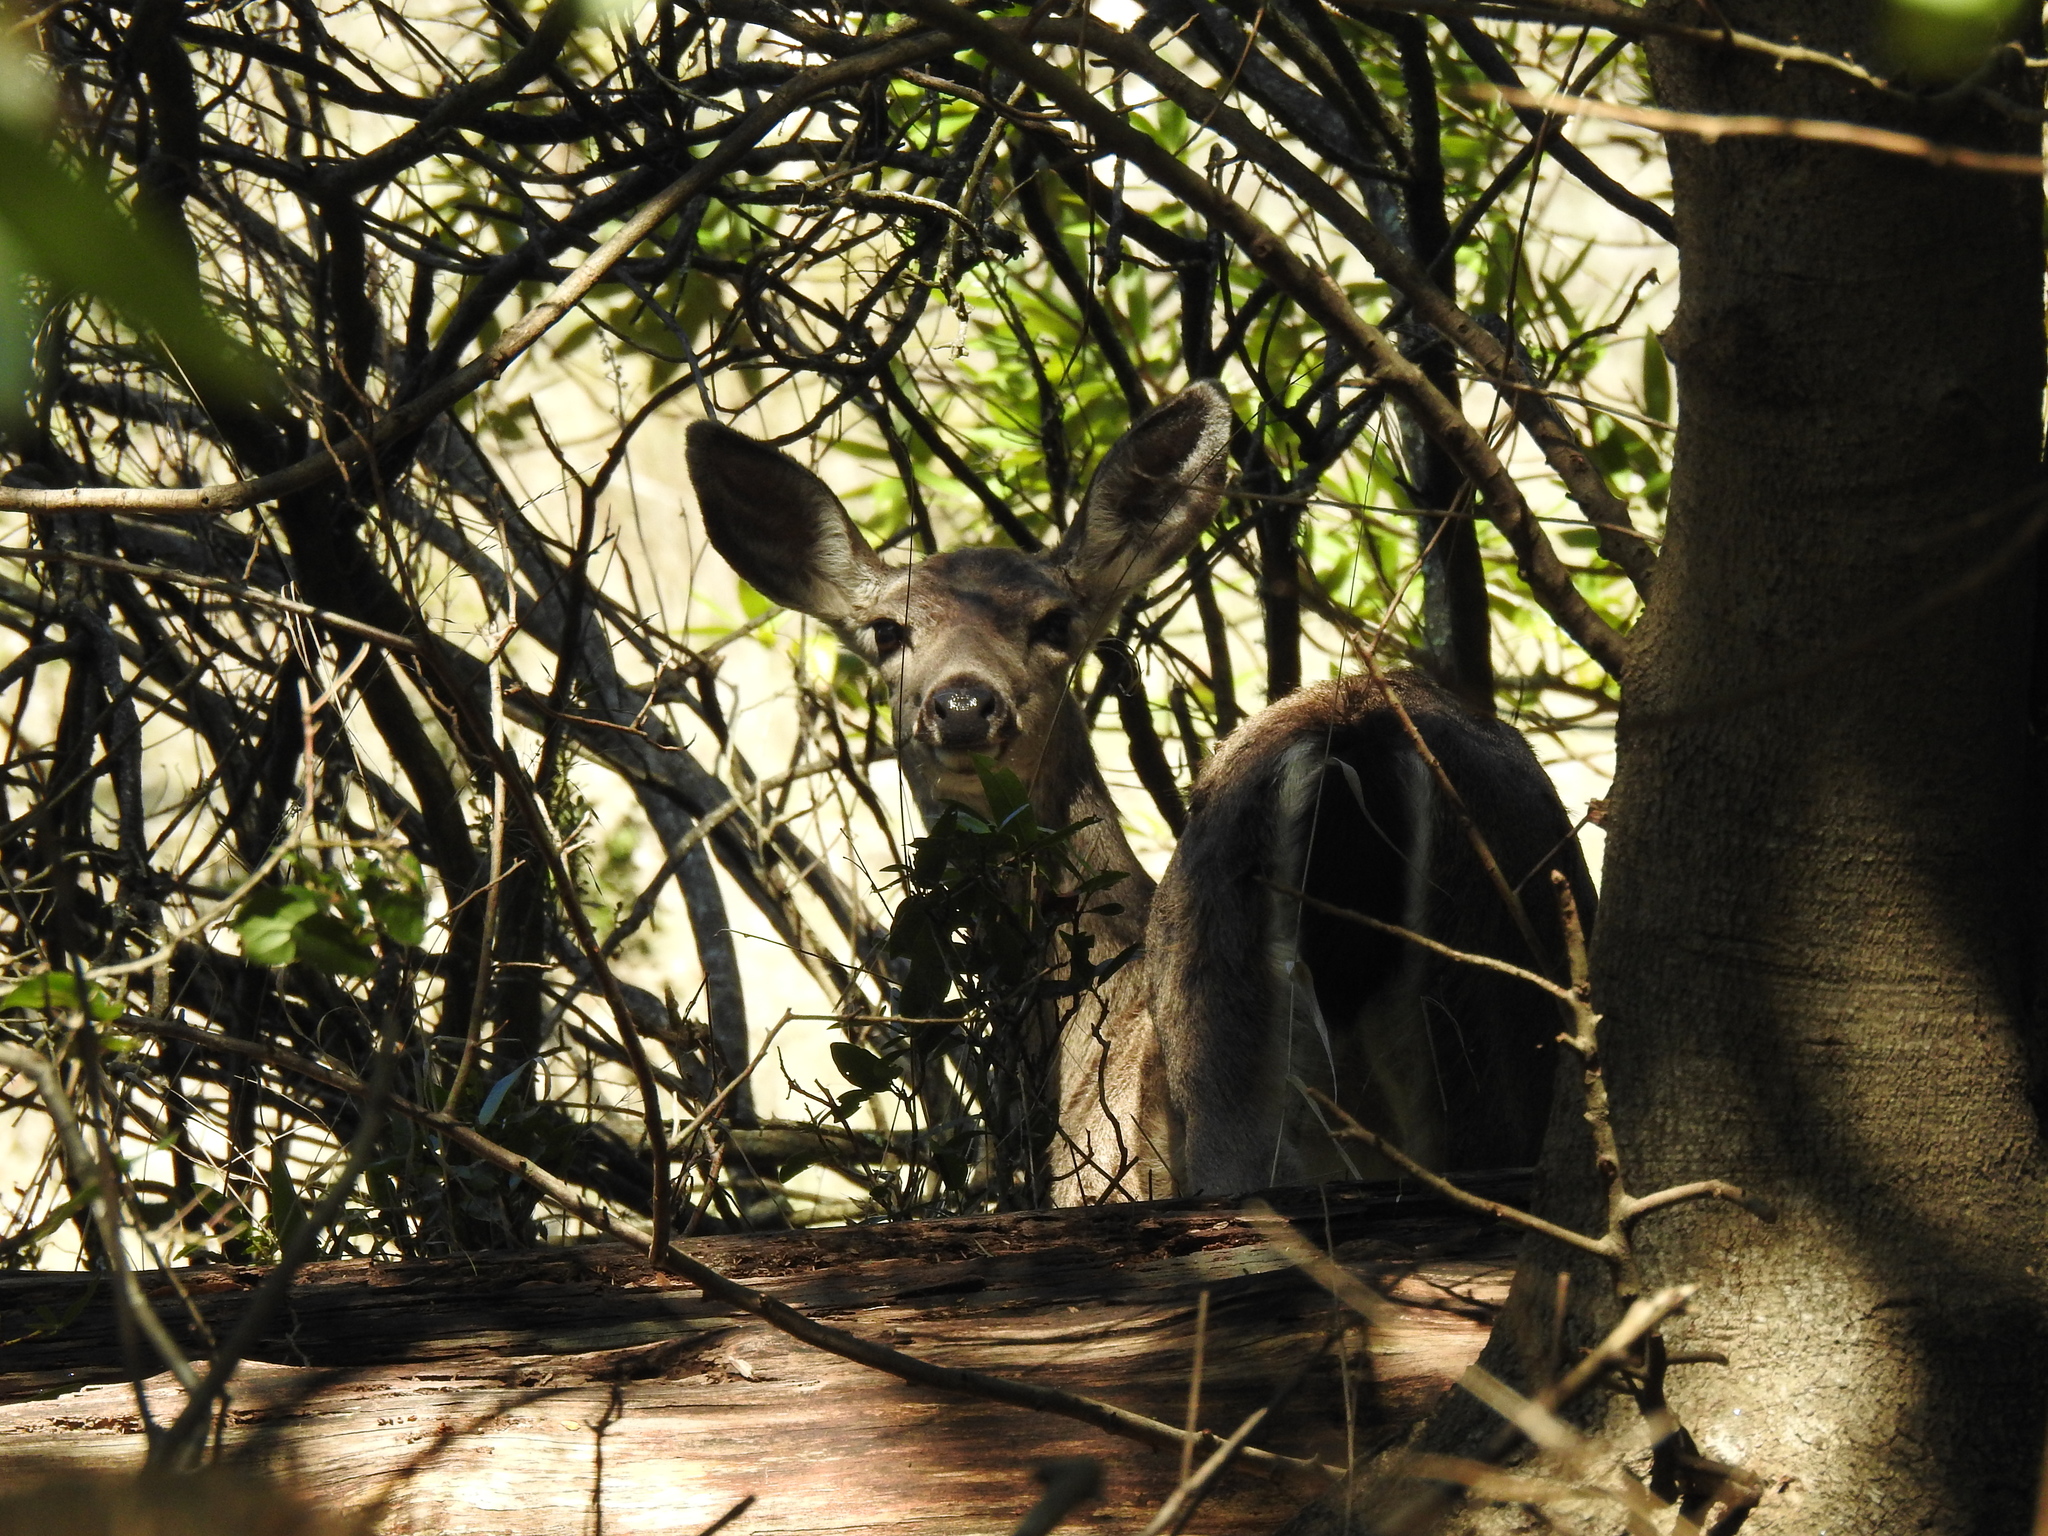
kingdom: Animalia
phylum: Chordata
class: Mammalia
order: Artiodactyla
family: Cervidae
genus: Odocoileus
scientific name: Odocoileus hemionus
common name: Mule deer
